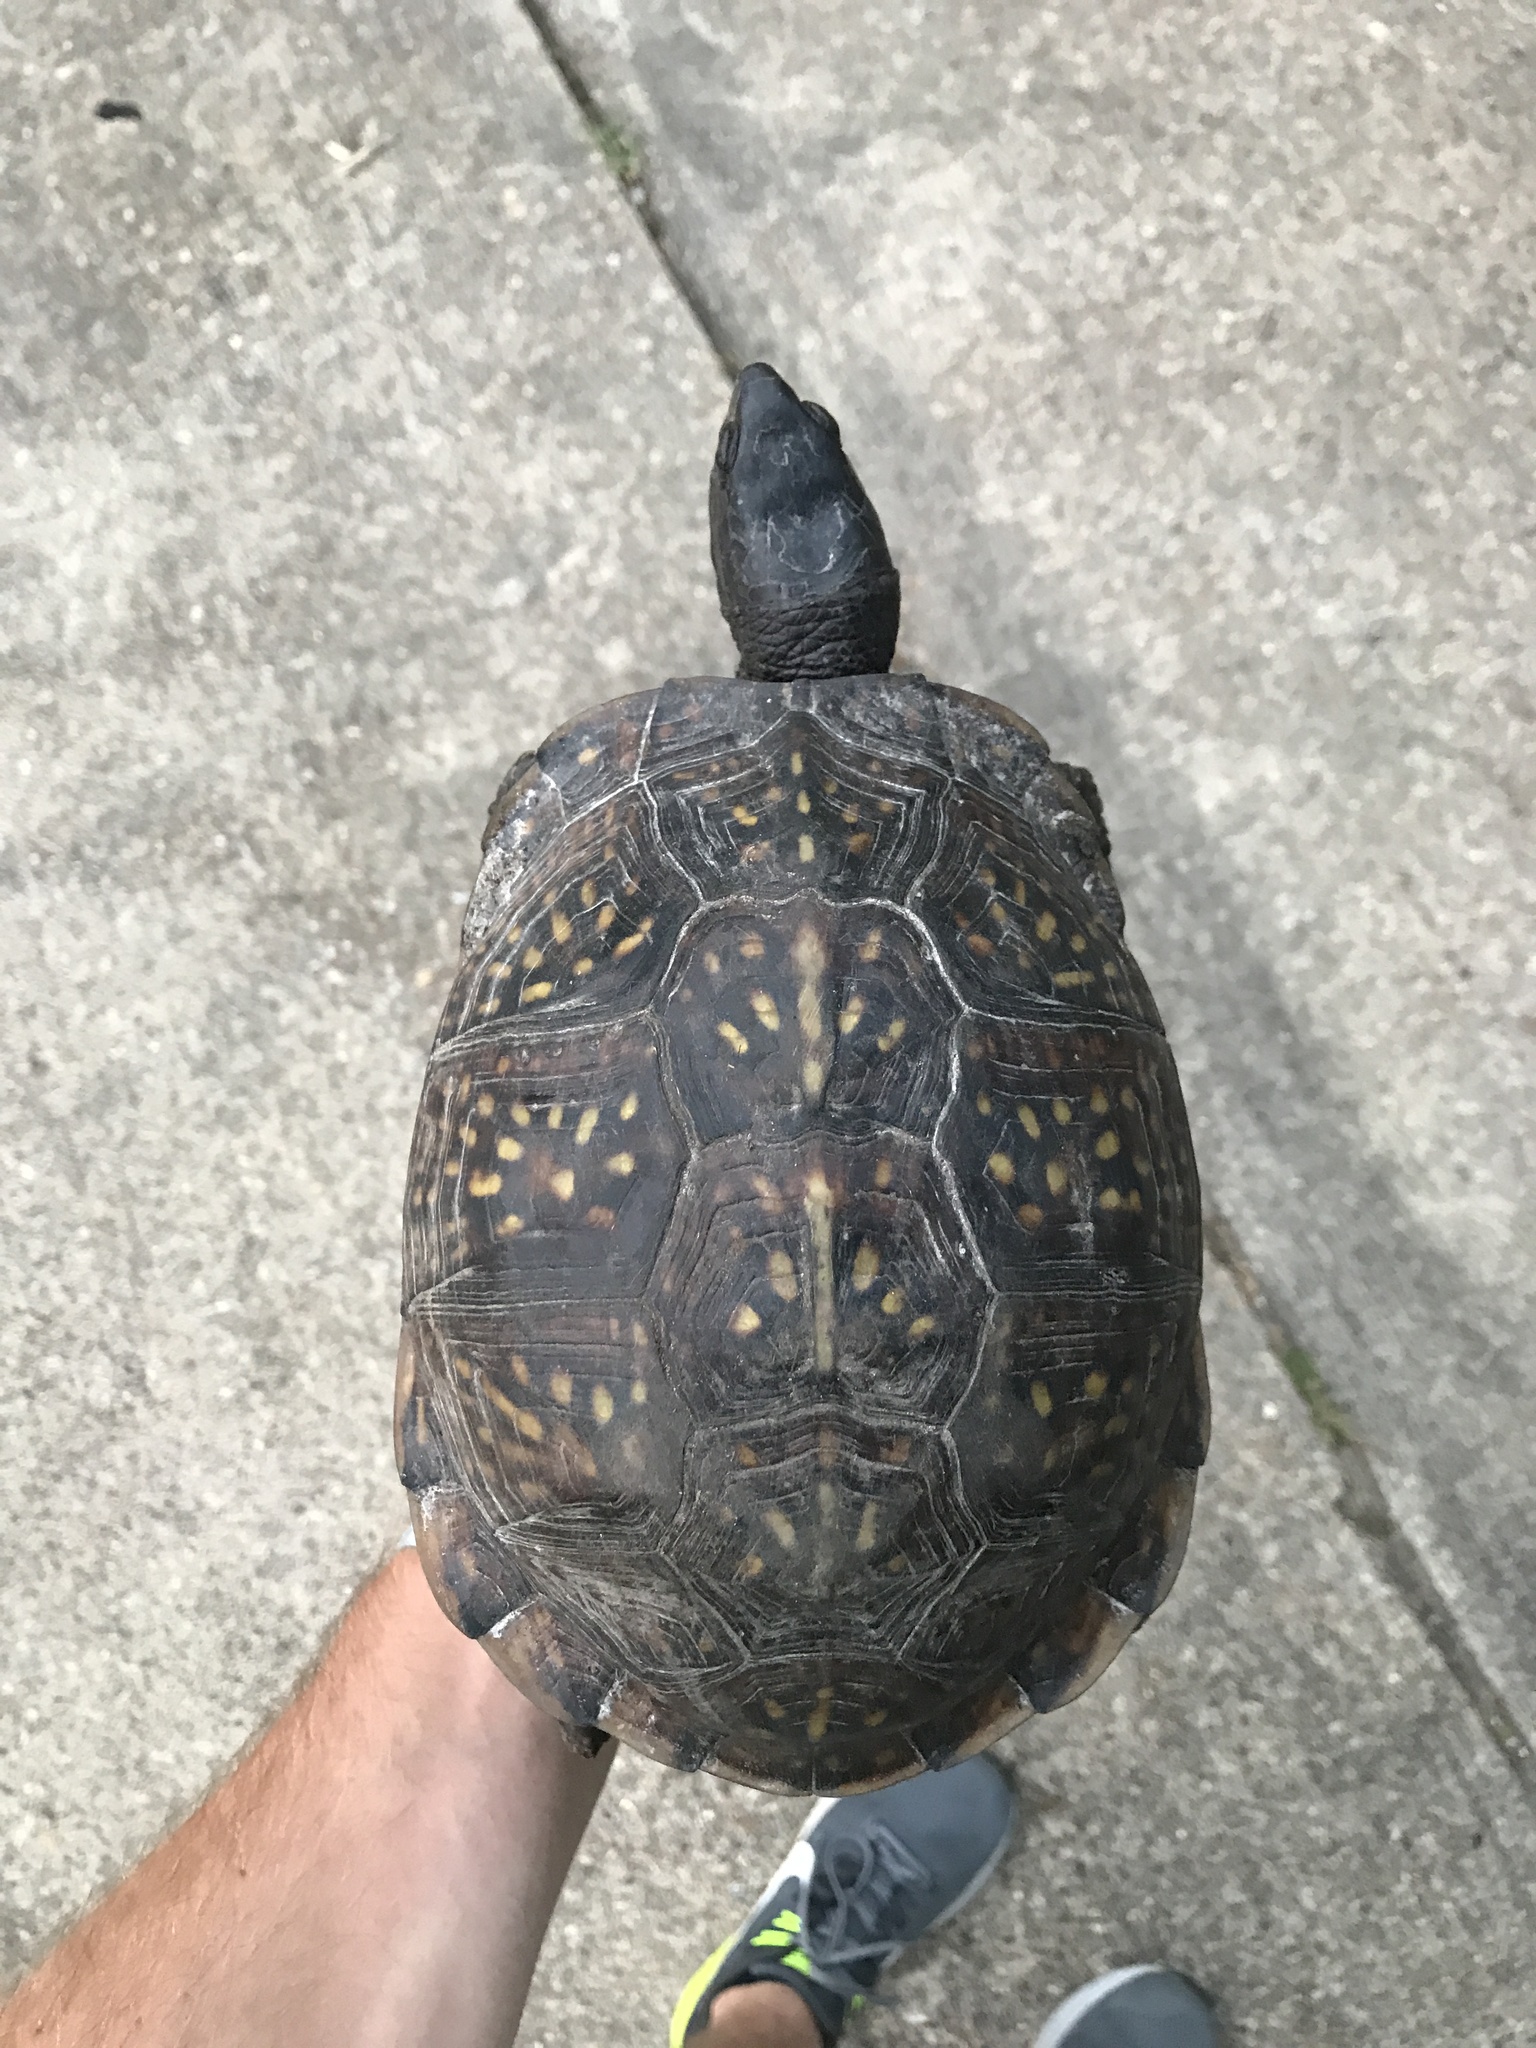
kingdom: Animalia
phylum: Chordata
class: Testudines
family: Emydidae
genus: Terrapene
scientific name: Terrapene carolina
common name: Common box turtle
